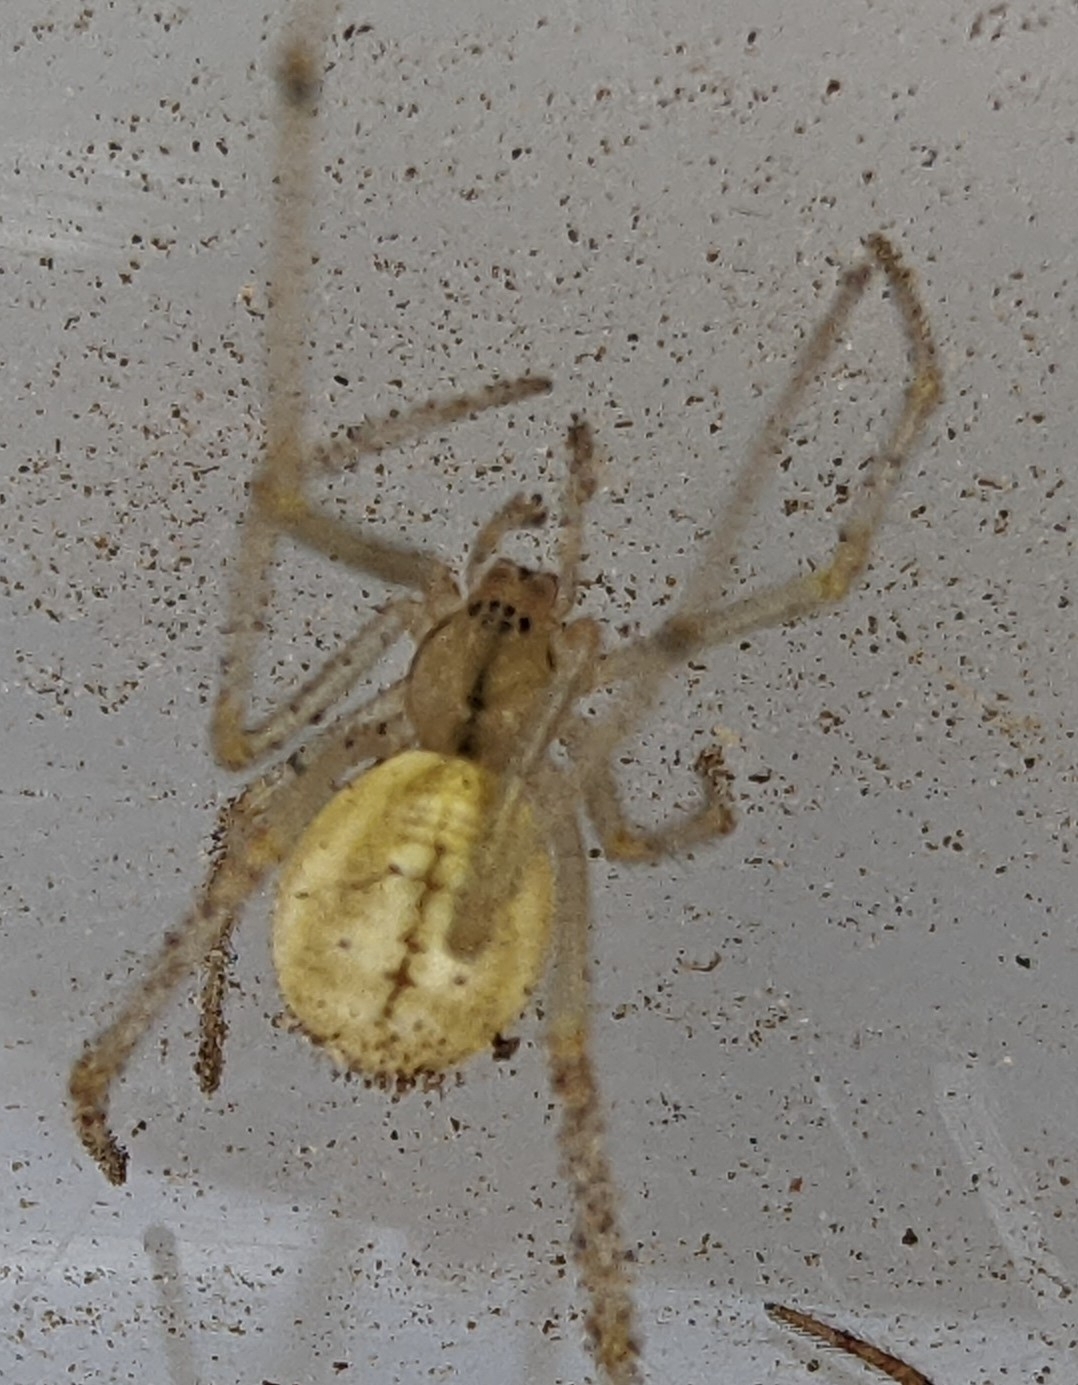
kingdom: Animalia
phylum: Arthropoda
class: Arachnida
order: Araneae
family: Theridiidae
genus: Enoplognatha
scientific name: Enoplognatha ovata
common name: Common candy-striped spider
